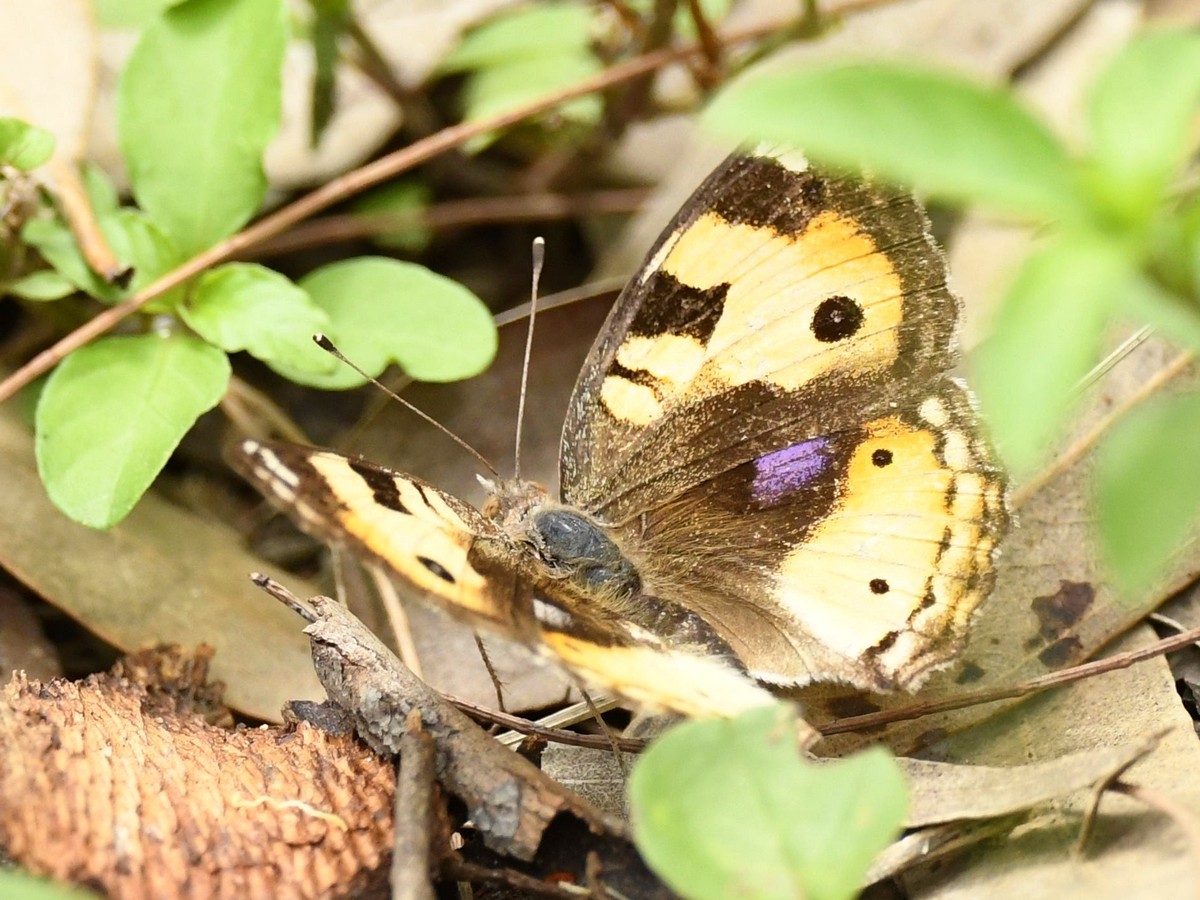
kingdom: Animalia
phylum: Arthropoda
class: Insecta
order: Lepidoptera
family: Nymphalidae
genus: Junonia
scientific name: Junonia hierta
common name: Yellow pansy
